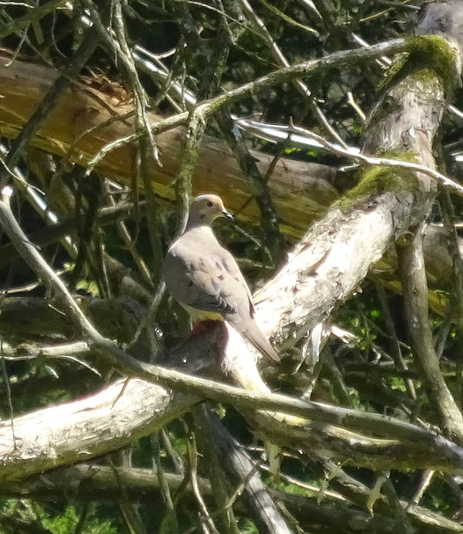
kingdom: Animalia
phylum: Chordata
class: Aves
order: Columbiformes
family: Columbidae
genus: Zenaida
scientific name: Zenaida macroura
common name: Mourning dove
